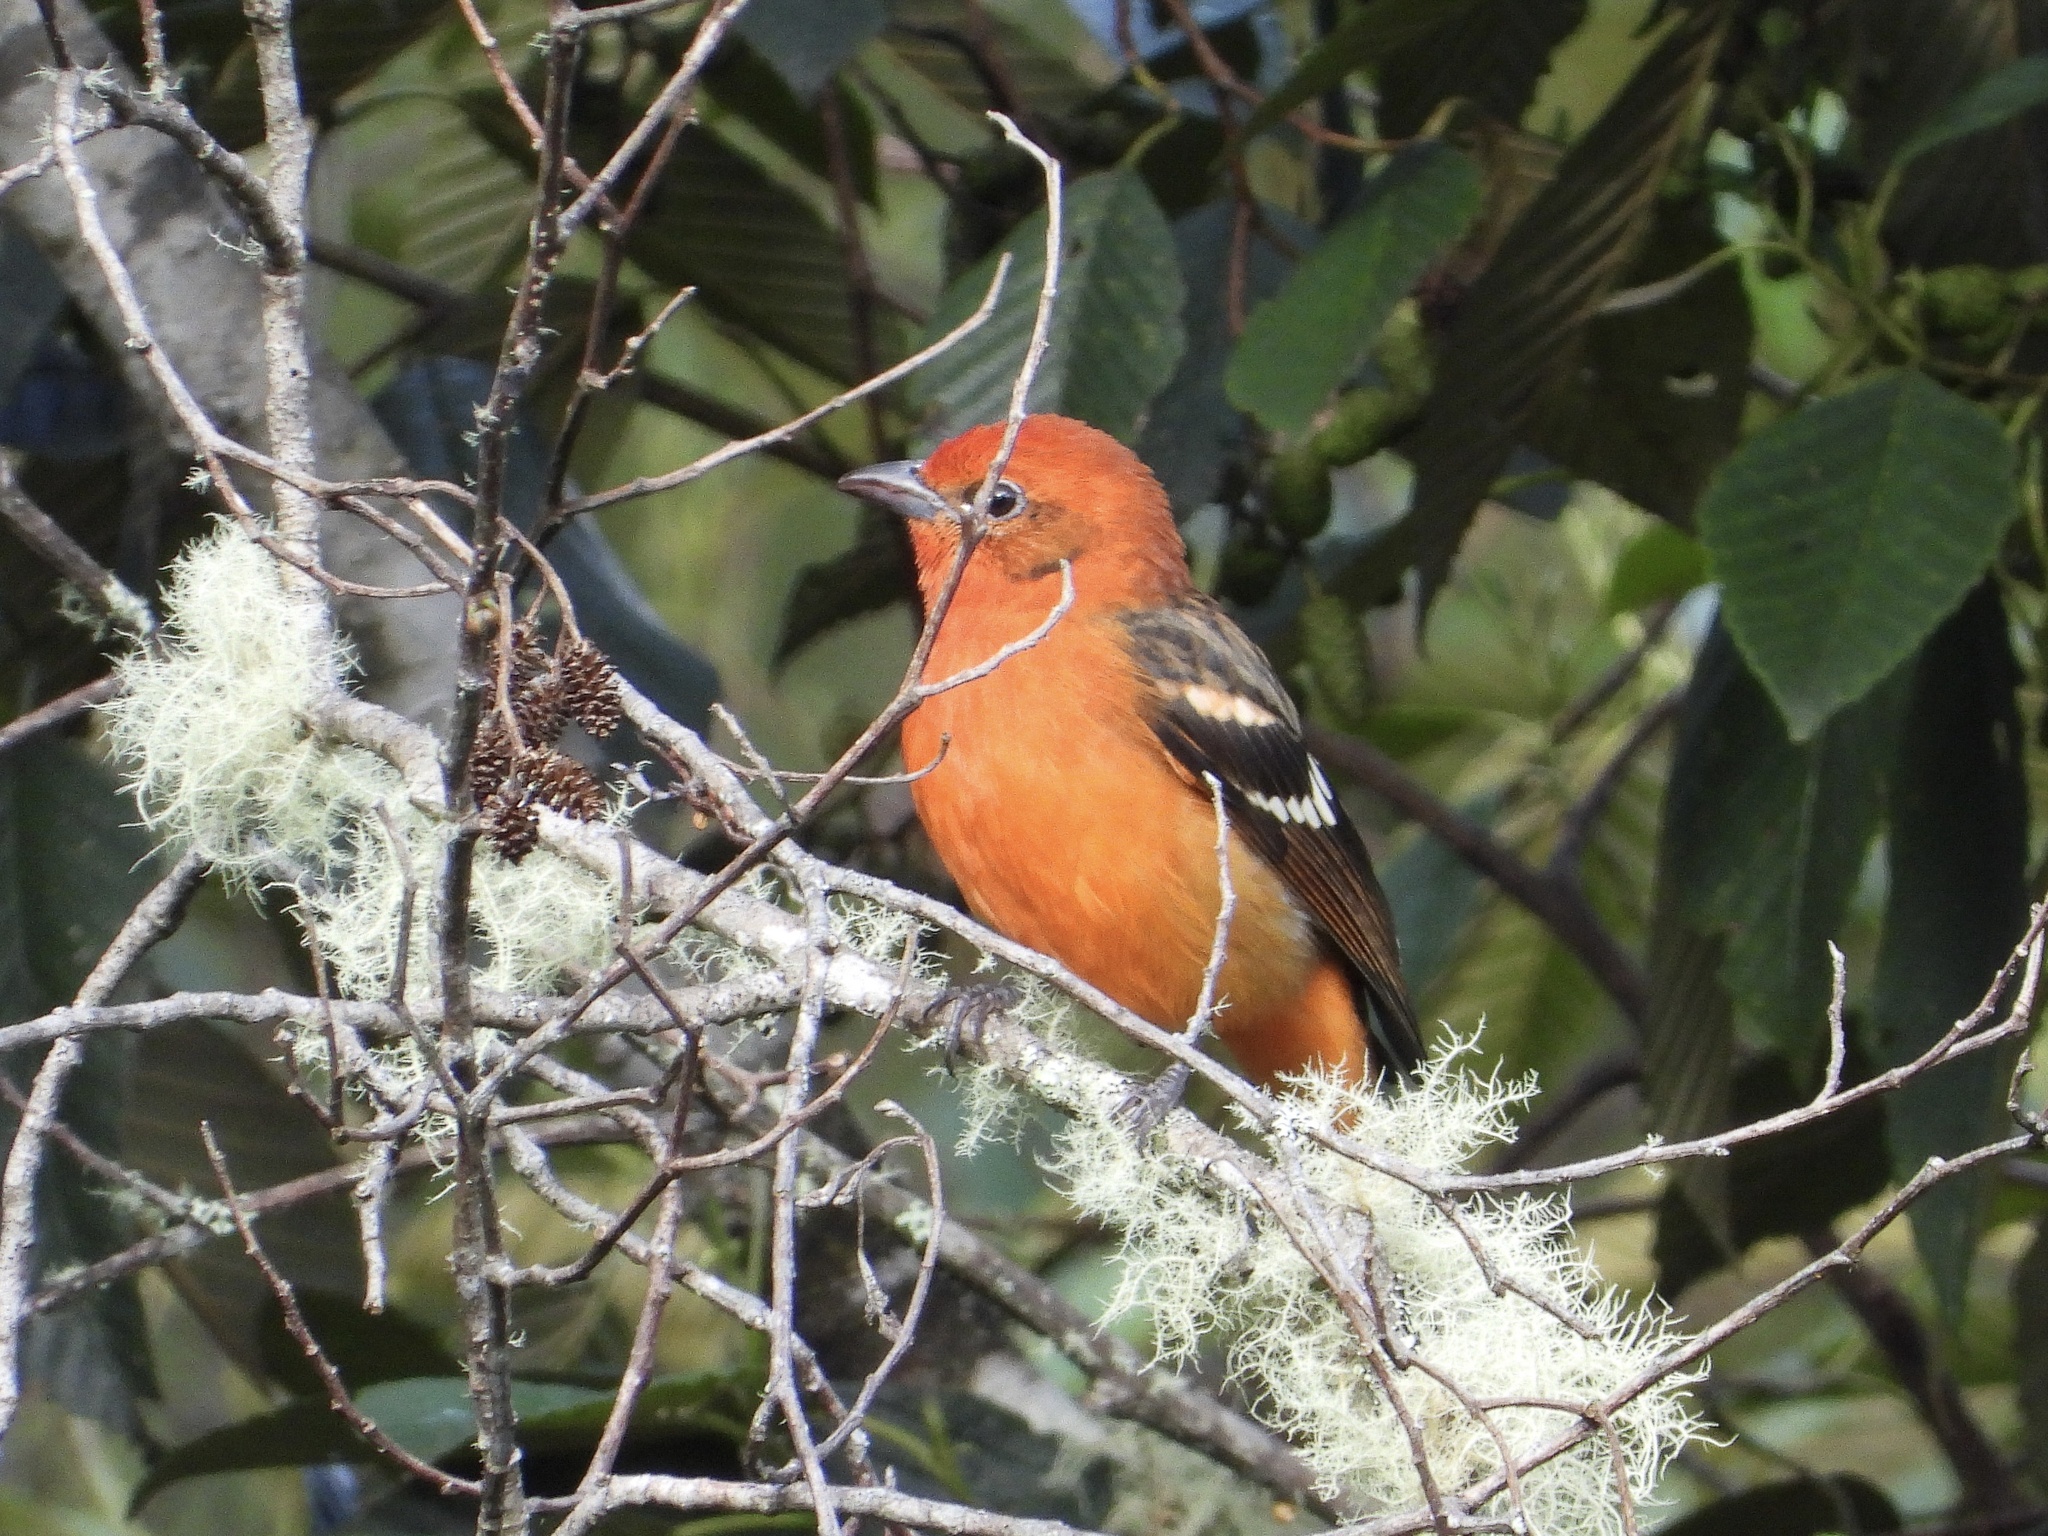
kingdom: Animalia
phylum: Chordata
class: Aves
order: Passeriformes
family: Cardinalidae
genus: Piranga
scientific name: Piranga bidentata
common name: Flame-colored tanager
